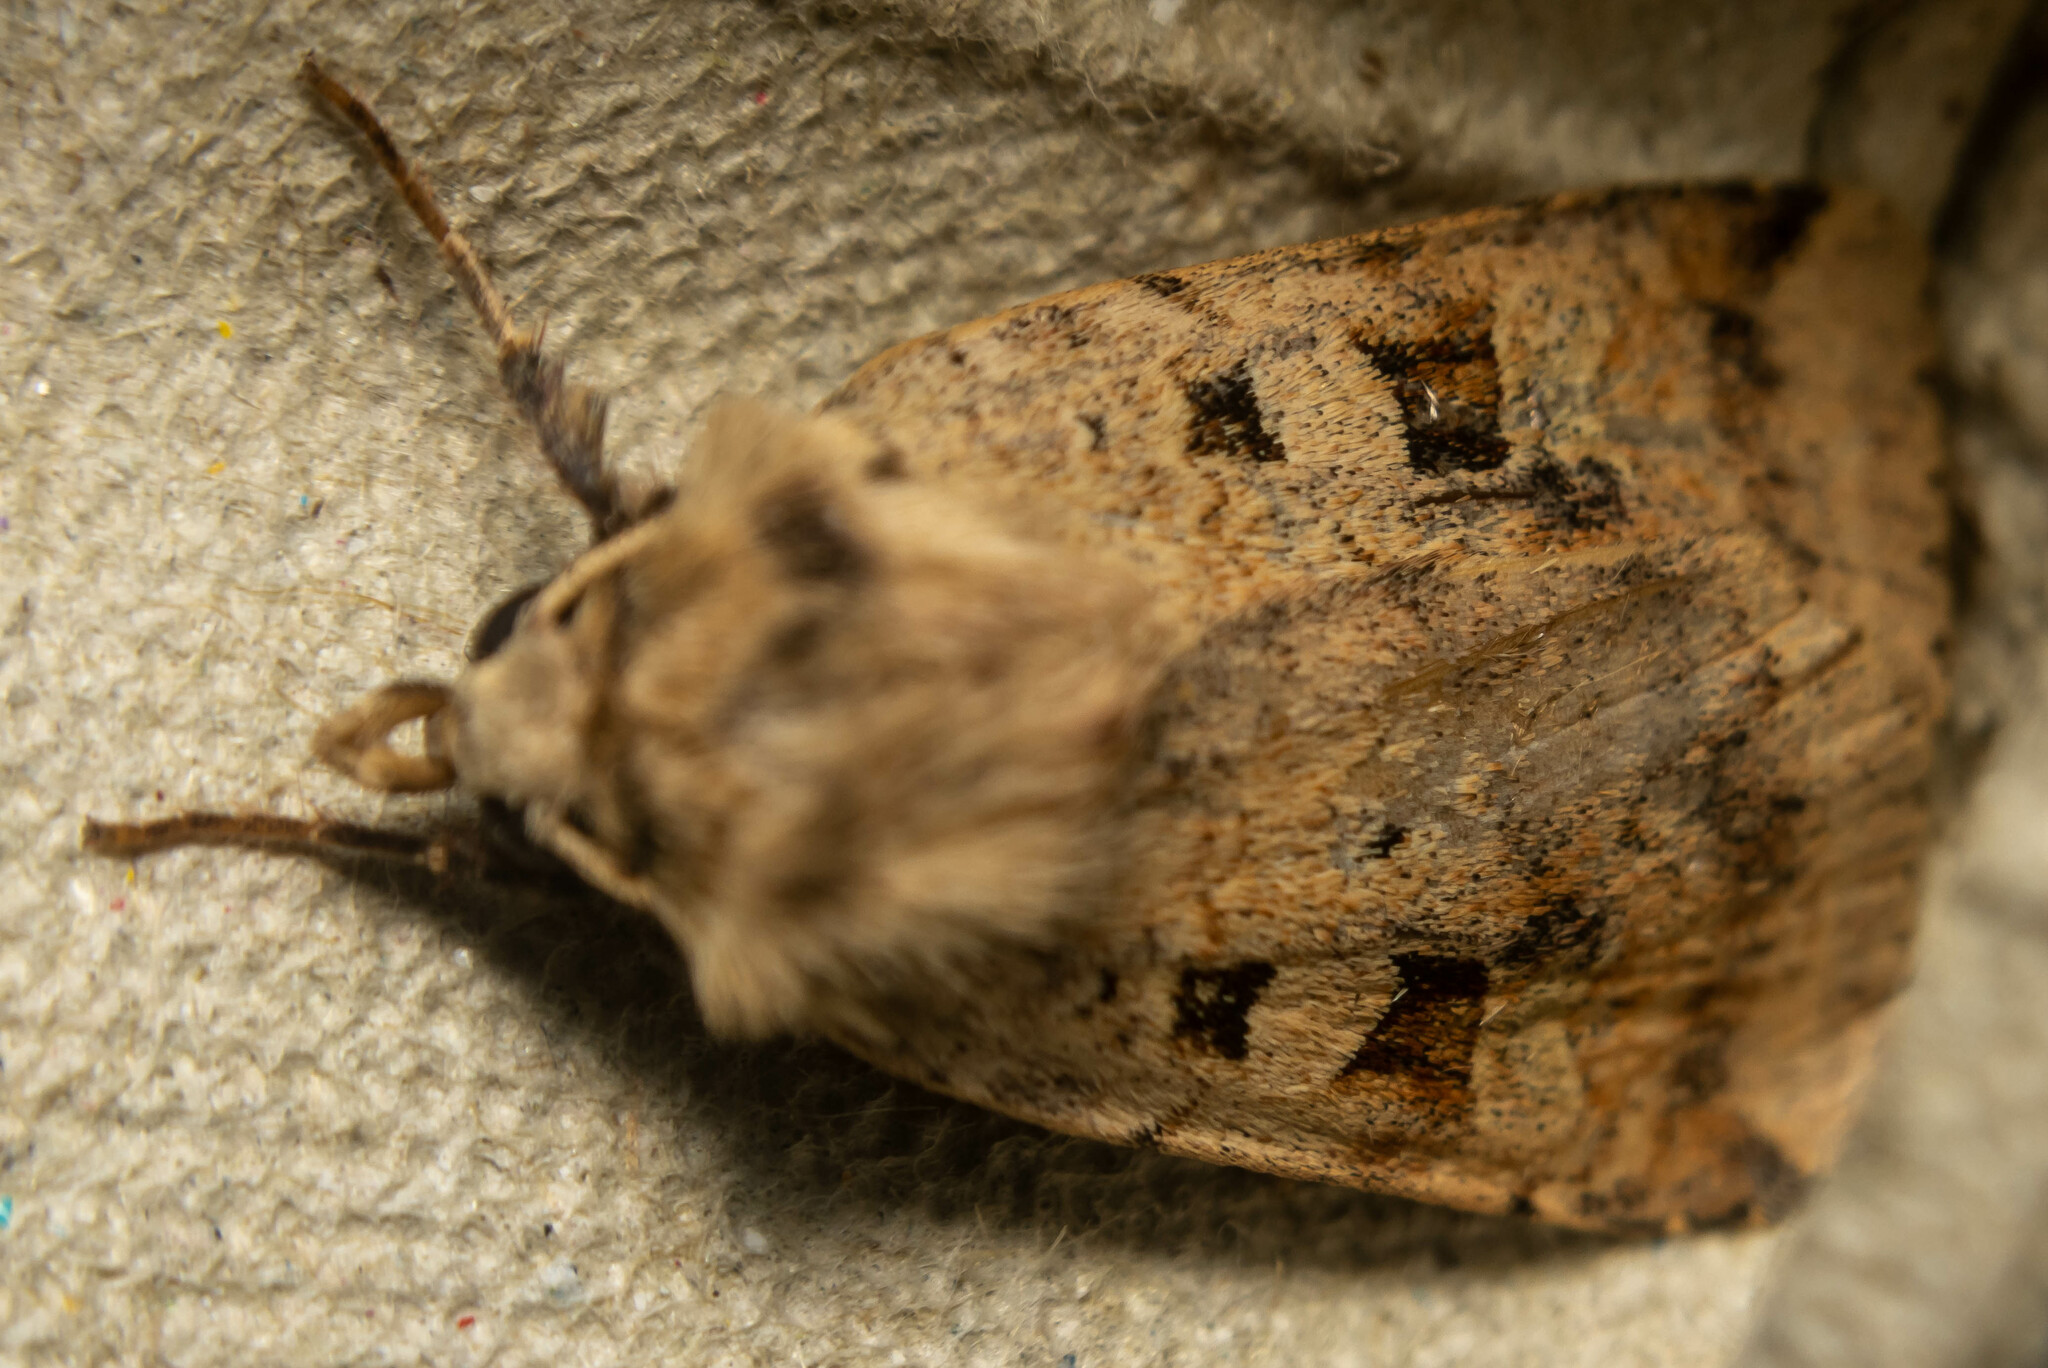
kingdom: Animalia
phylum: Arthropoda
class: Insecta
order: Lepidoptera
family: Noctuidae
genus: Diarsia
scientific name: Diarsia mendica
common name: Ingrailed clay
